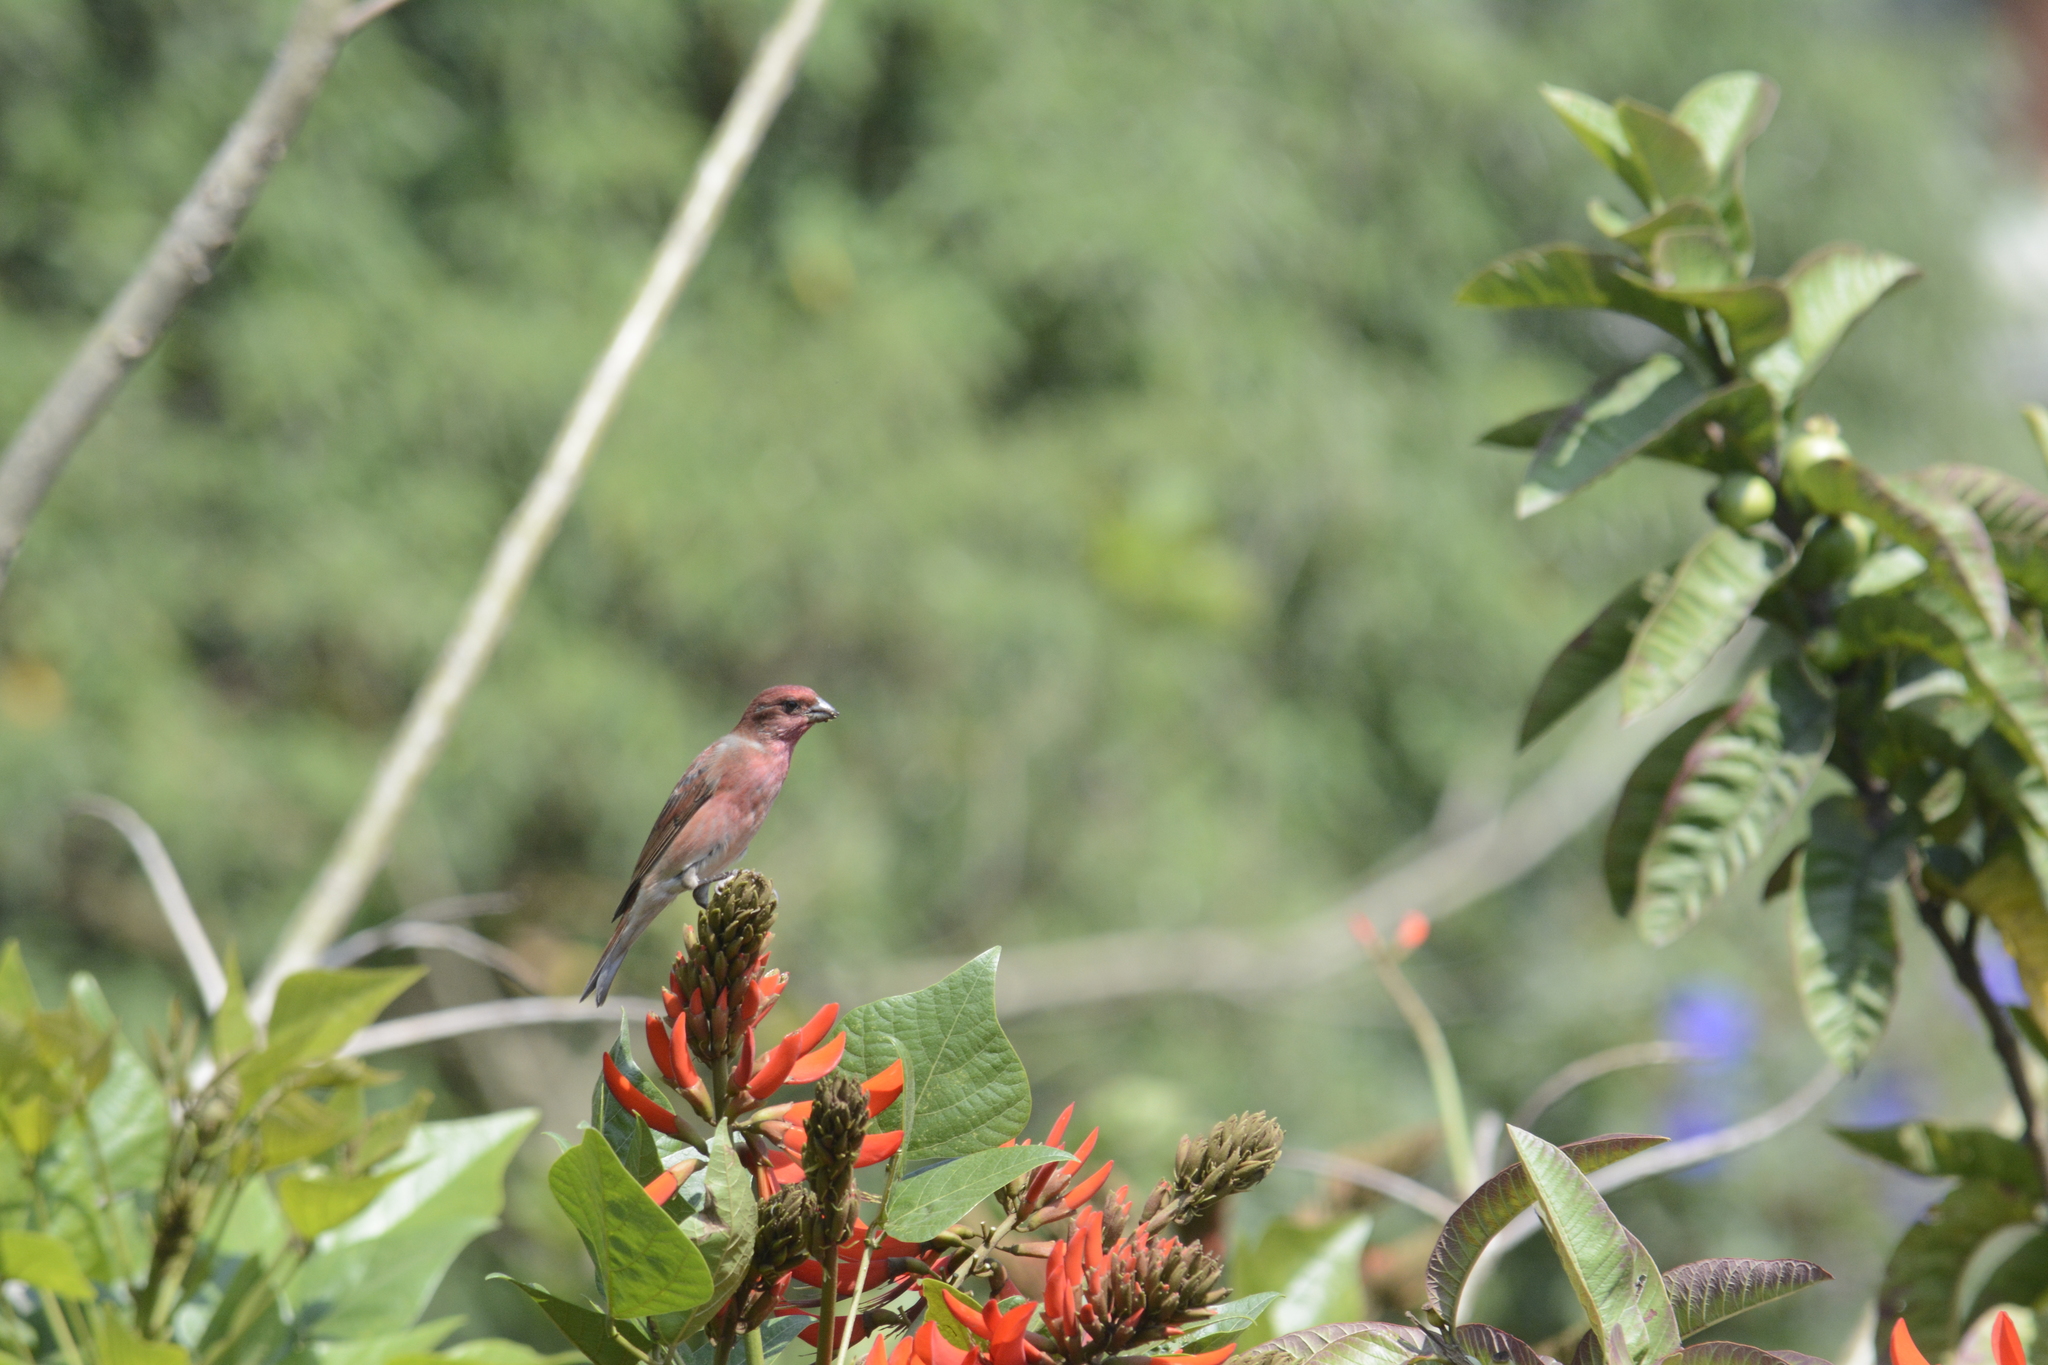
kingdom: Animalia
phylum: Chordata
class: Aves
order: Passeriformes
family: Fringillidae
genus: Carpodacus
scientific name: Carpodacus erythrinus
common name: Common rosefinch
